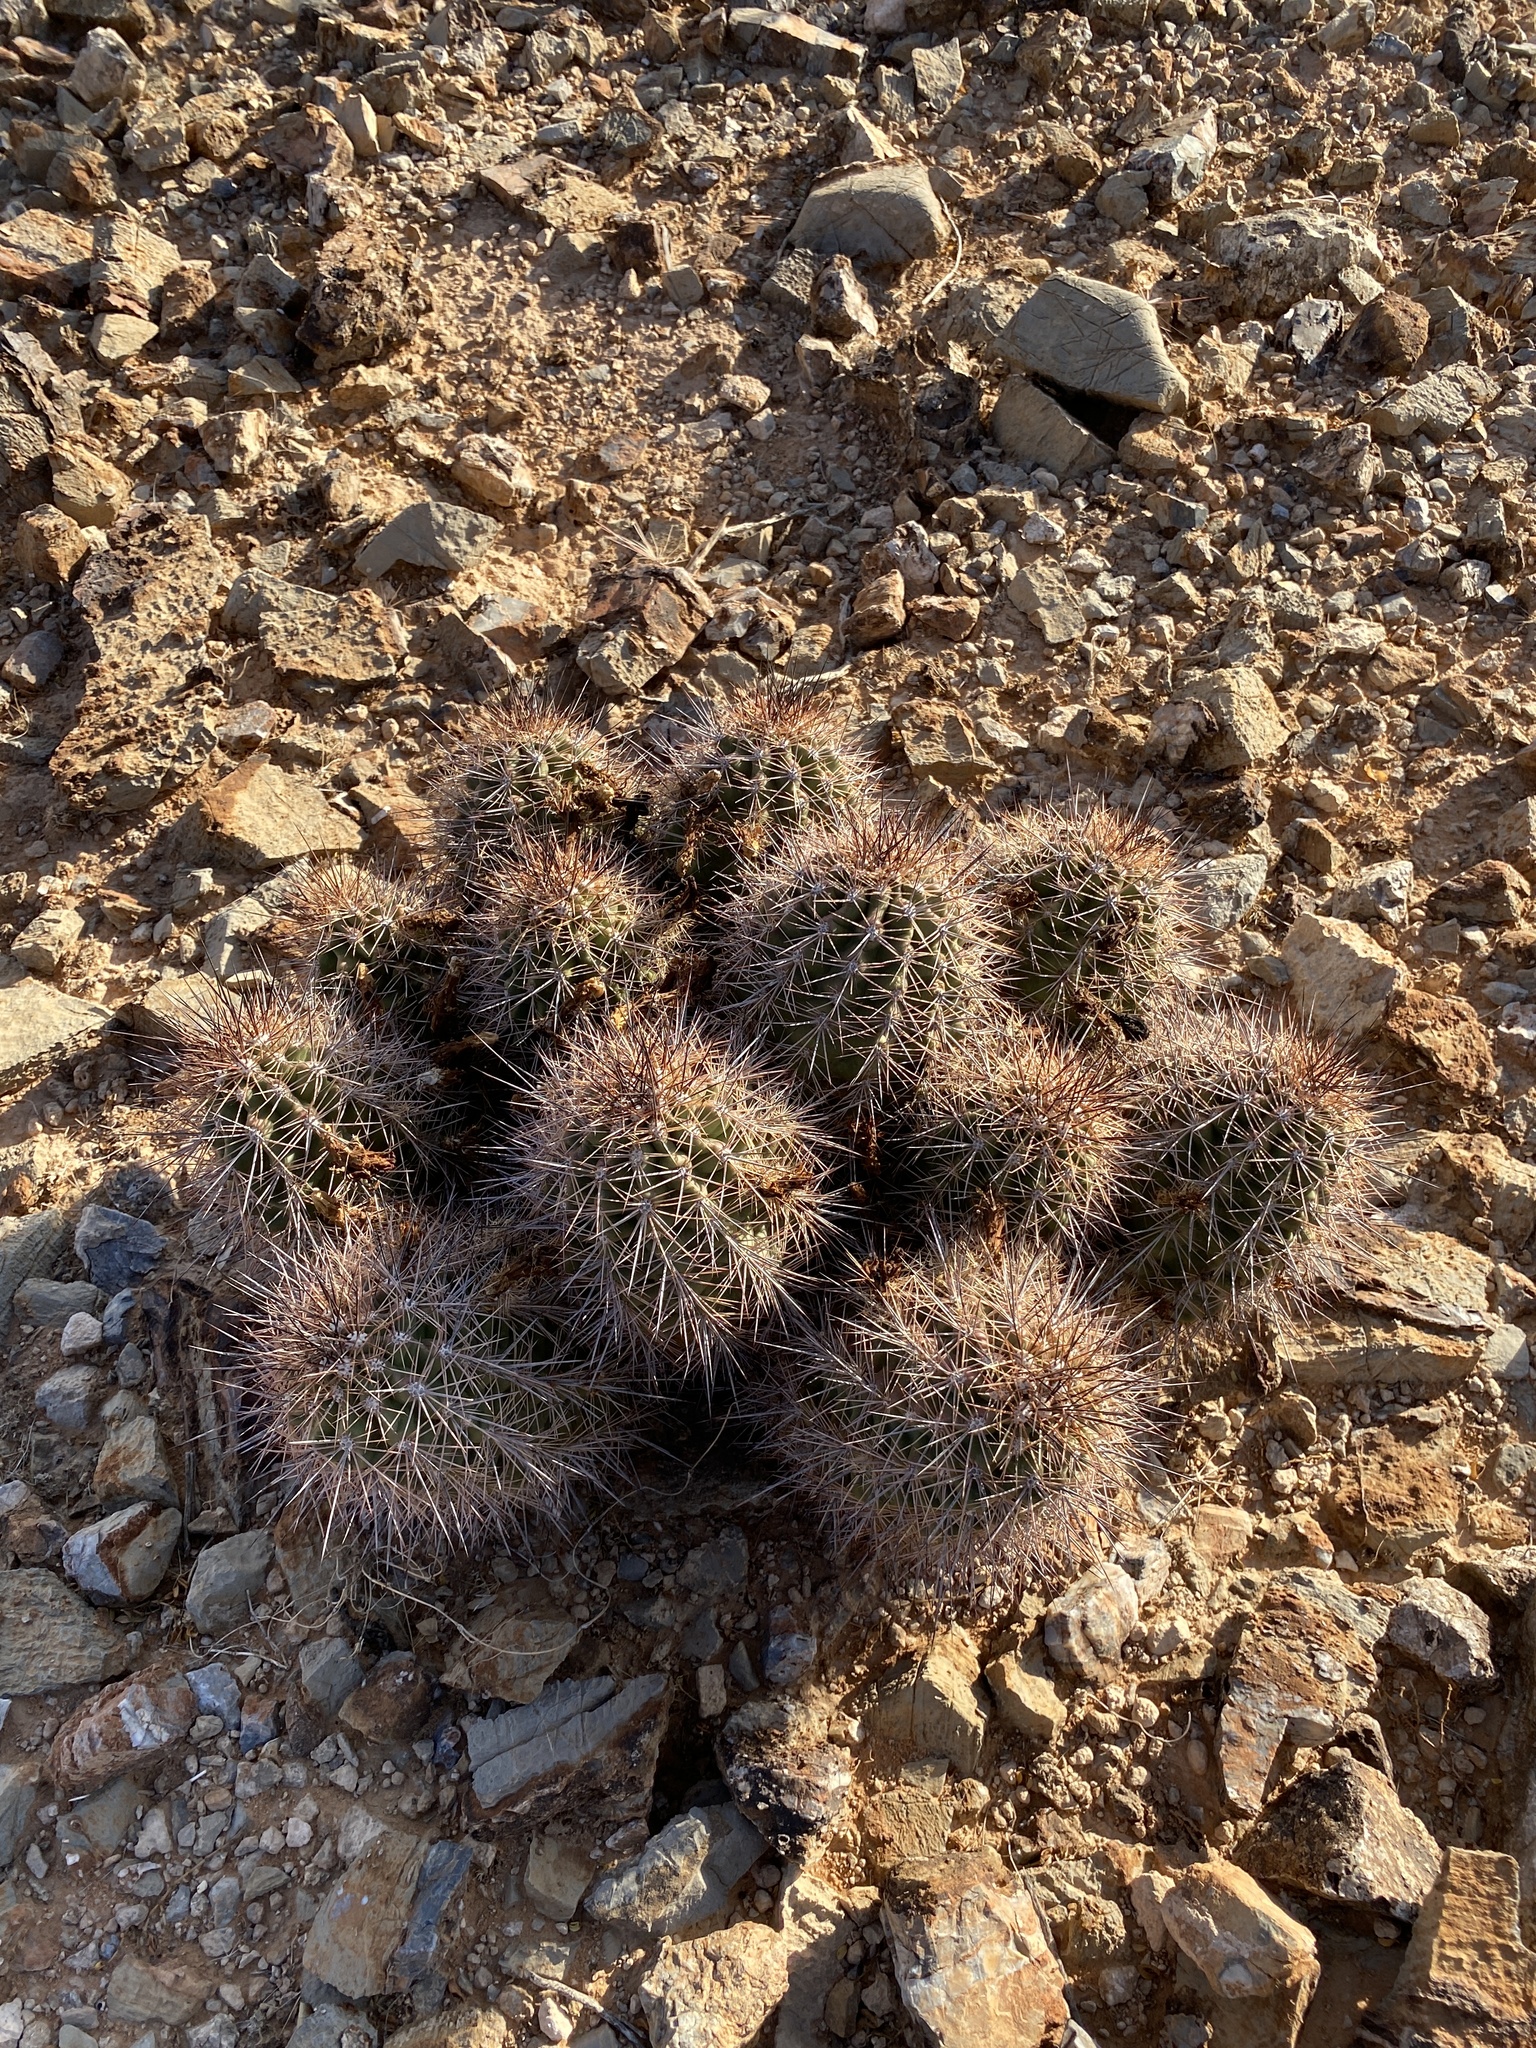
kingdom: Plantae
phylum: Tracheophyta
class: Magnoliopsida
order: Caryophyllales
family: Cactaceae
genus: Echinocereus
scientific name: Echinocereus coccineus
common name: Scarlet hedgehog cactus
